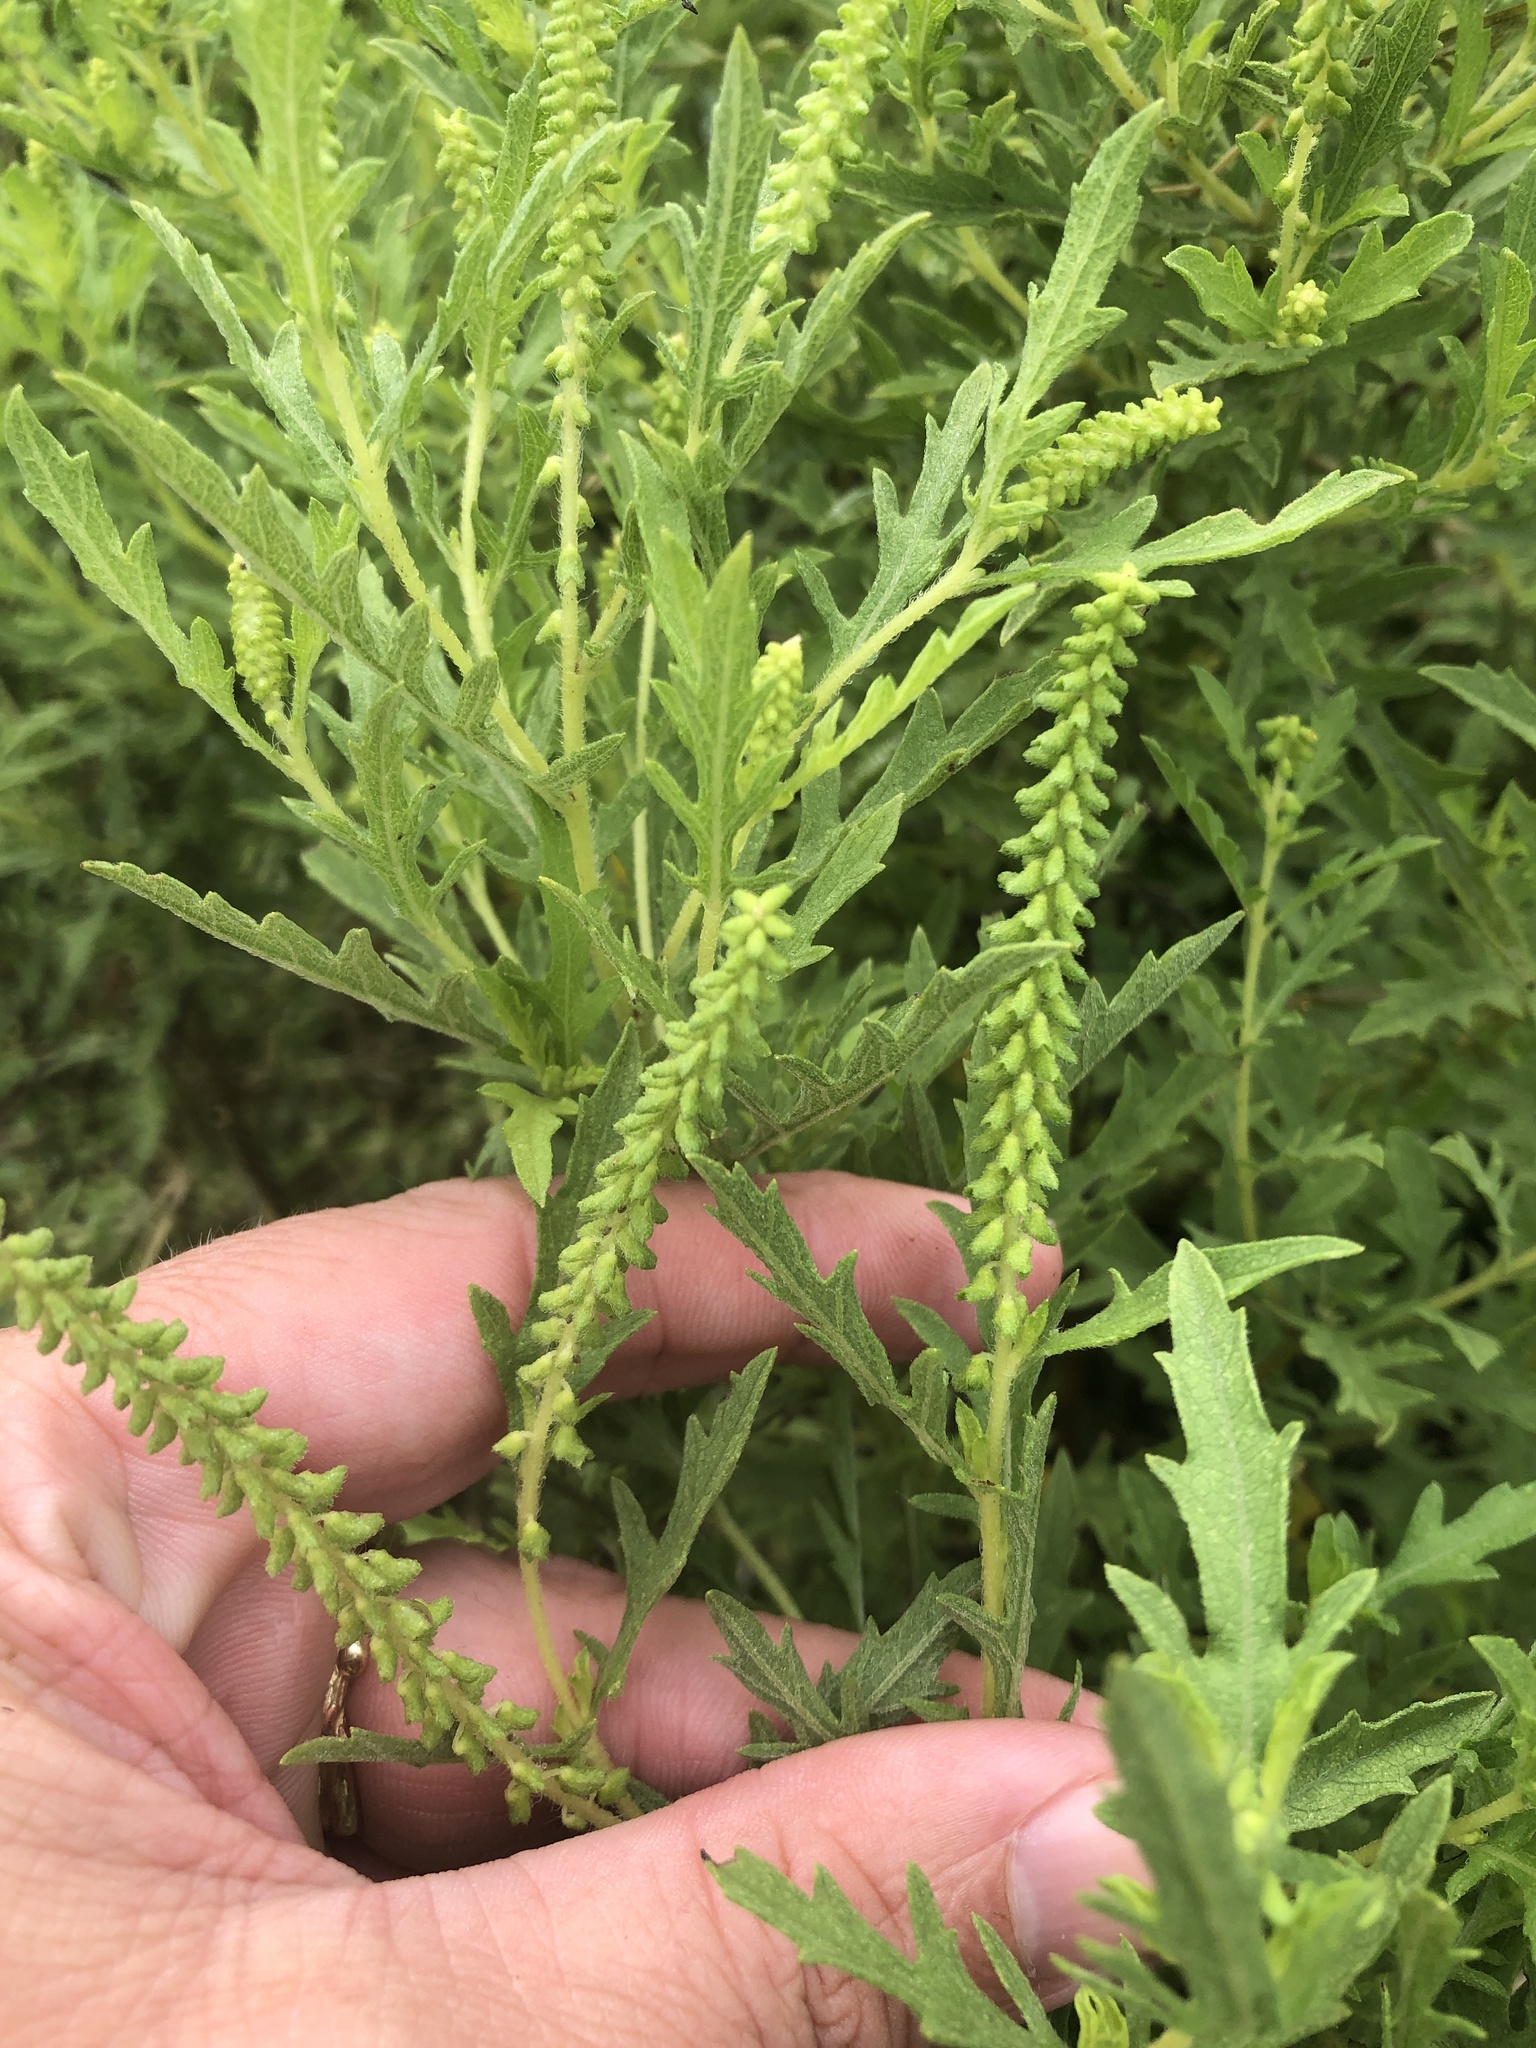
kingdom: Plantae
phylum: Tracheophyta
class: Magnoliopsida
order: Asterales
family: Asteraceae
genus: Ambrosia
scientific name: Ambrosia psilostachya
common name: Perennial ragweed
